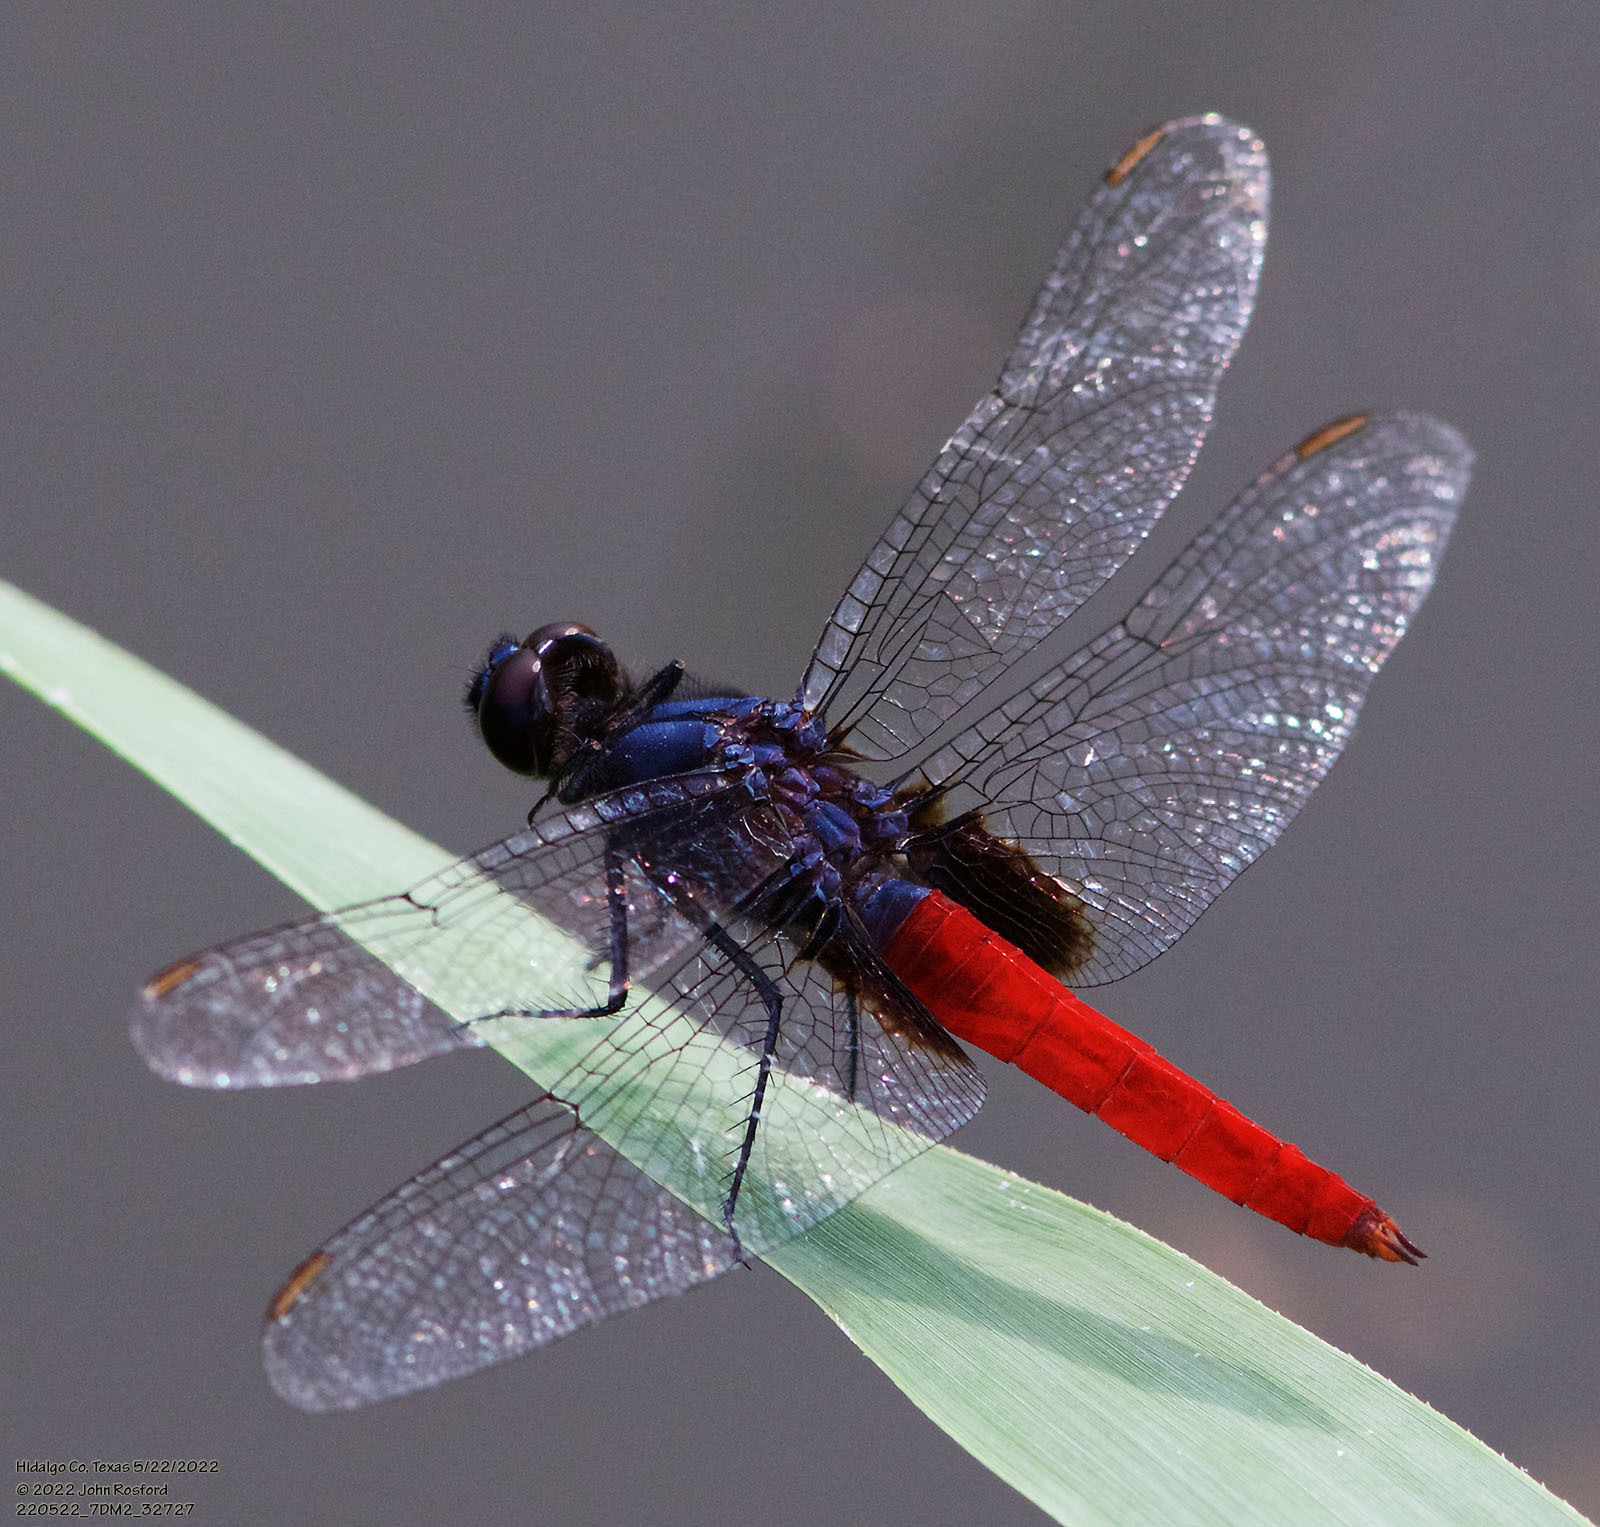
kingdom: Animalia
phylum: Arthropoda
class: Insecta
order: Odonata
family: Libellulidae
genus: Planiplax
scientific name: Planiplax sanguiniventris
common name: Mexican scarlet-tail
